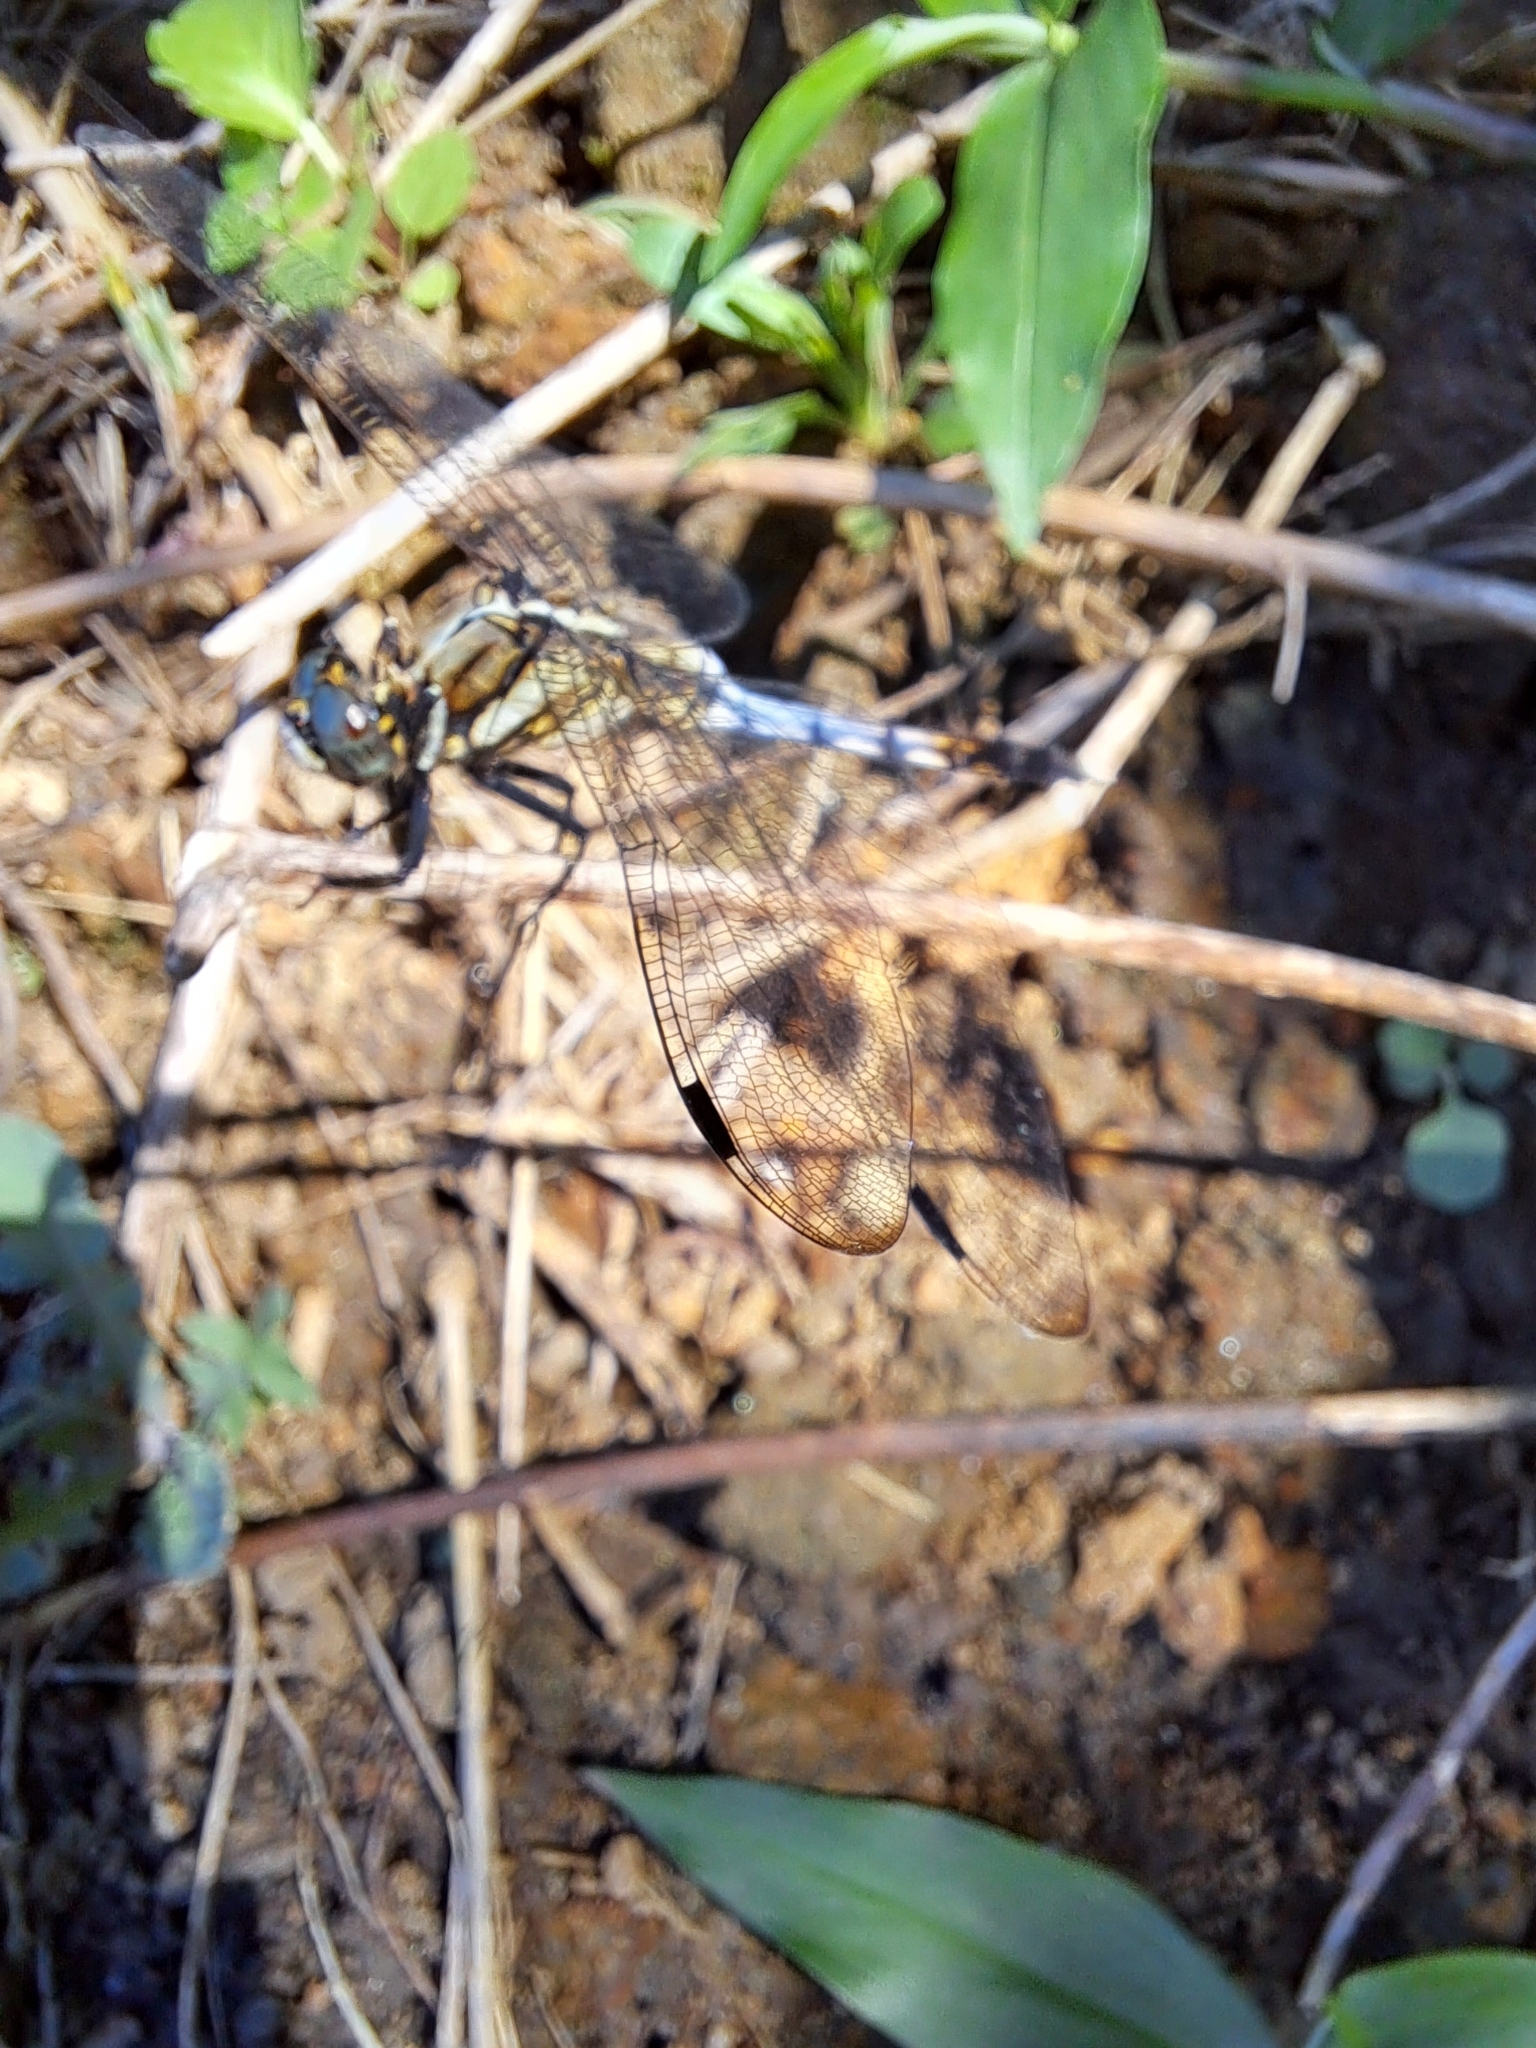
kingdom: Animalia
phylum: Arthropoda
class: Insecta
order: Odonata
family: Libellulidae
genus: Orthetrum
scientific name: Orthetrum albistylum
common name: White-tailed skimmer
